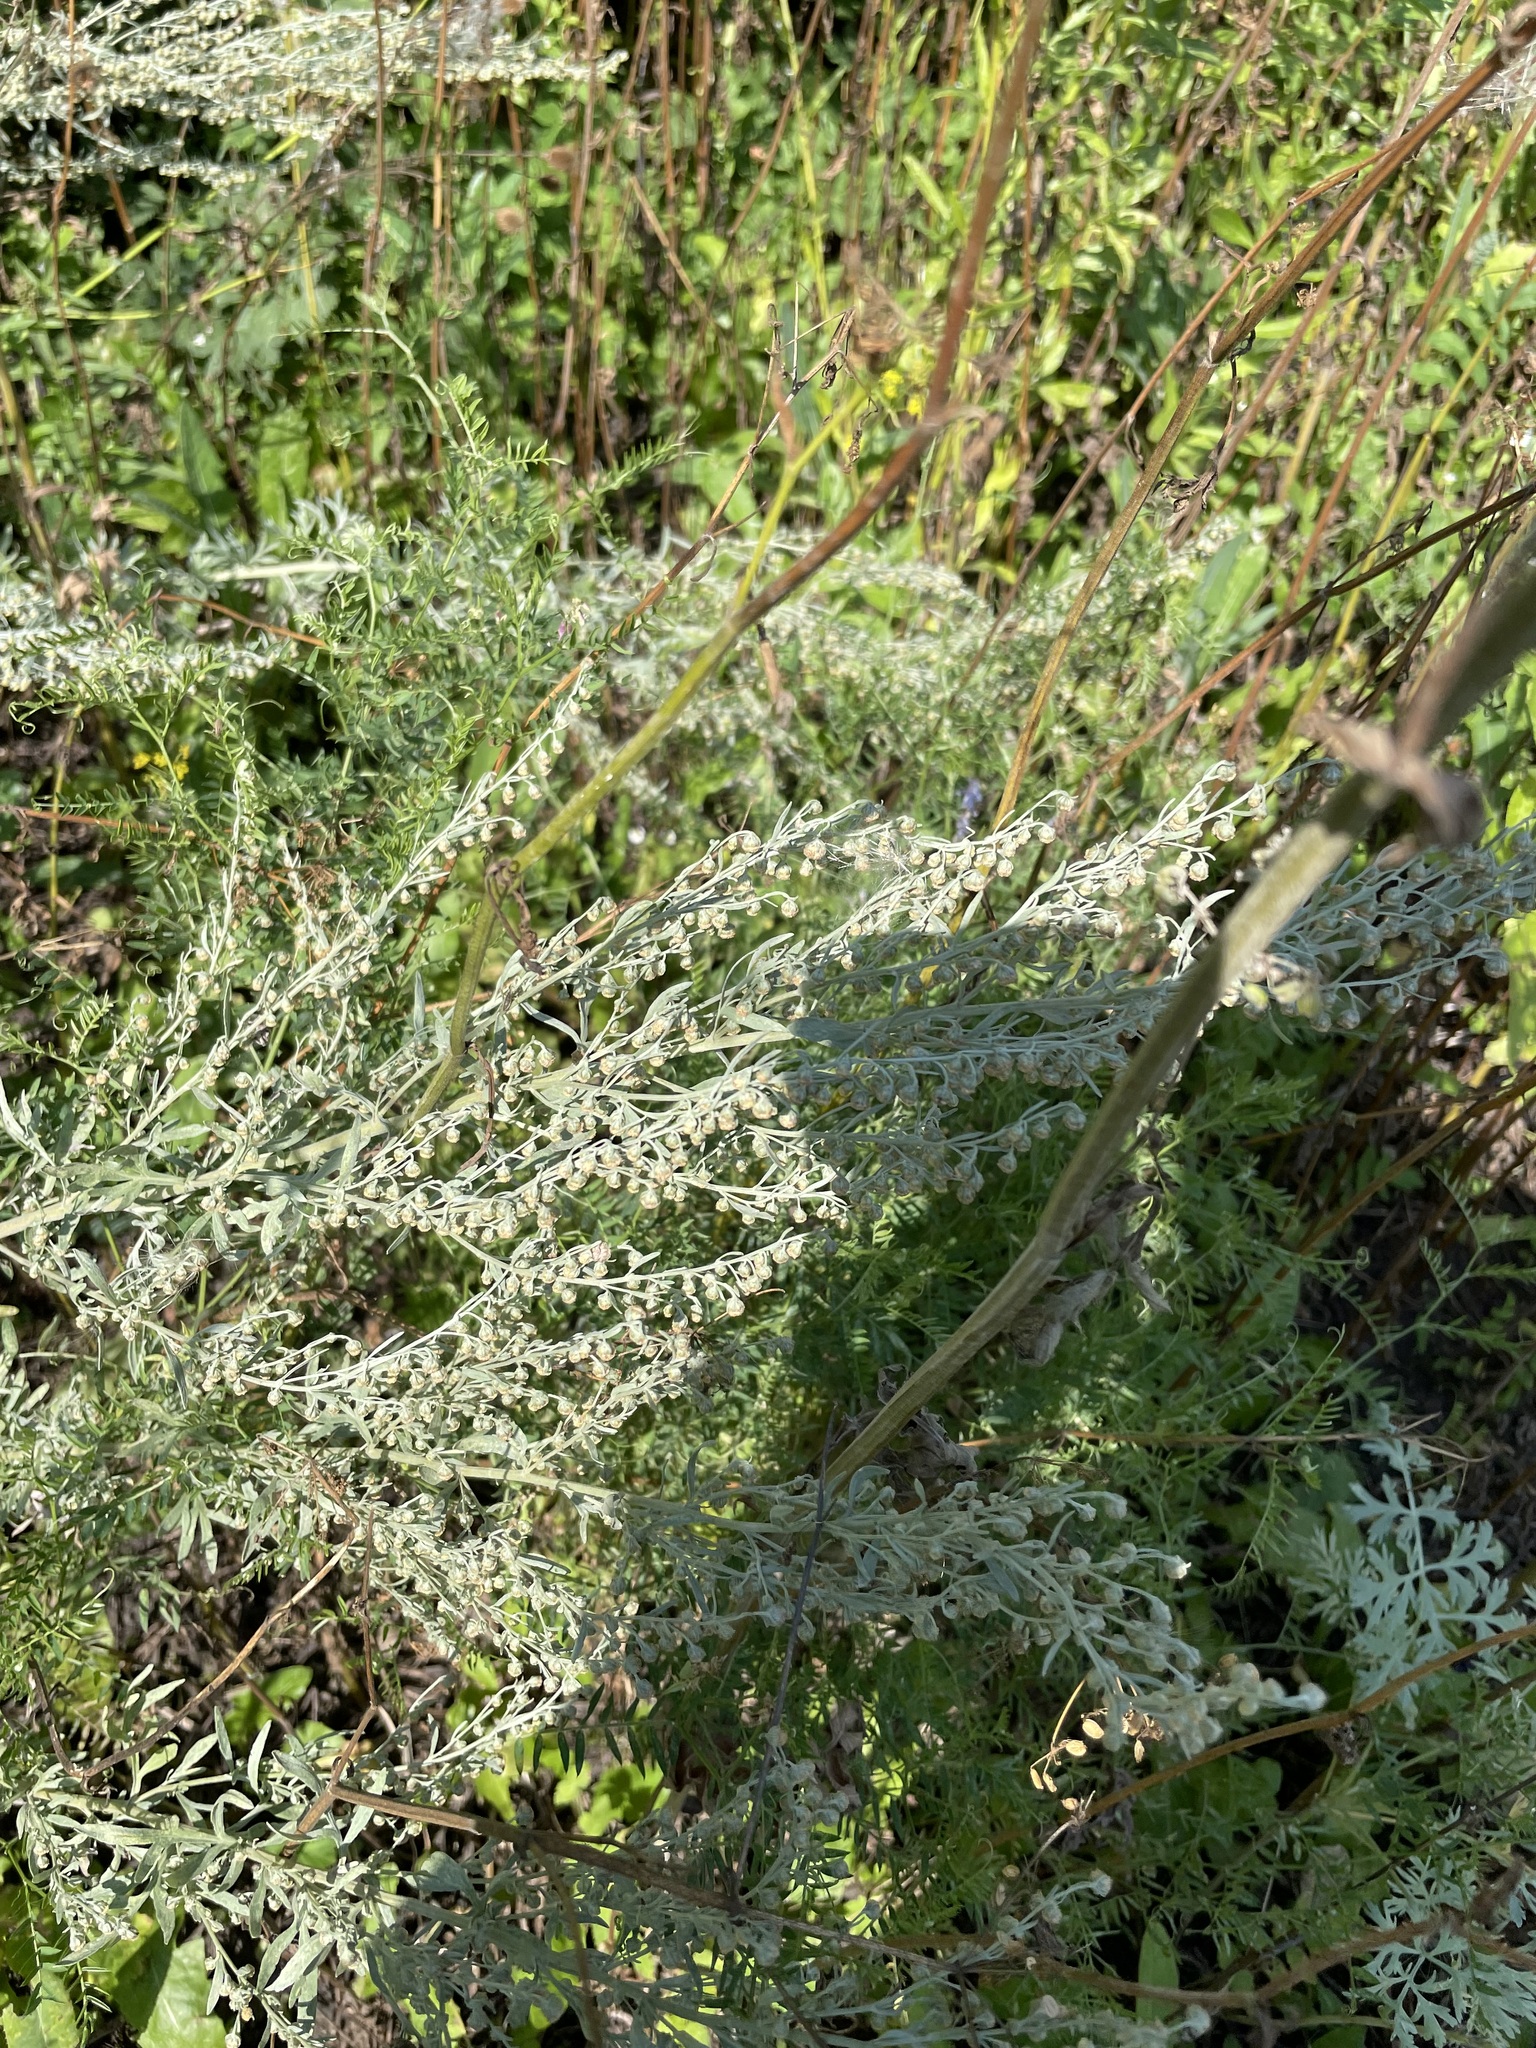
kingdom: Plantae
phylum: Tracheophyta
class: Magnoliopsida
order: Asterales
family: Asteraceae
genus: Artemisia
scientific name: Artemisia absinthium
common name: Wormwood
